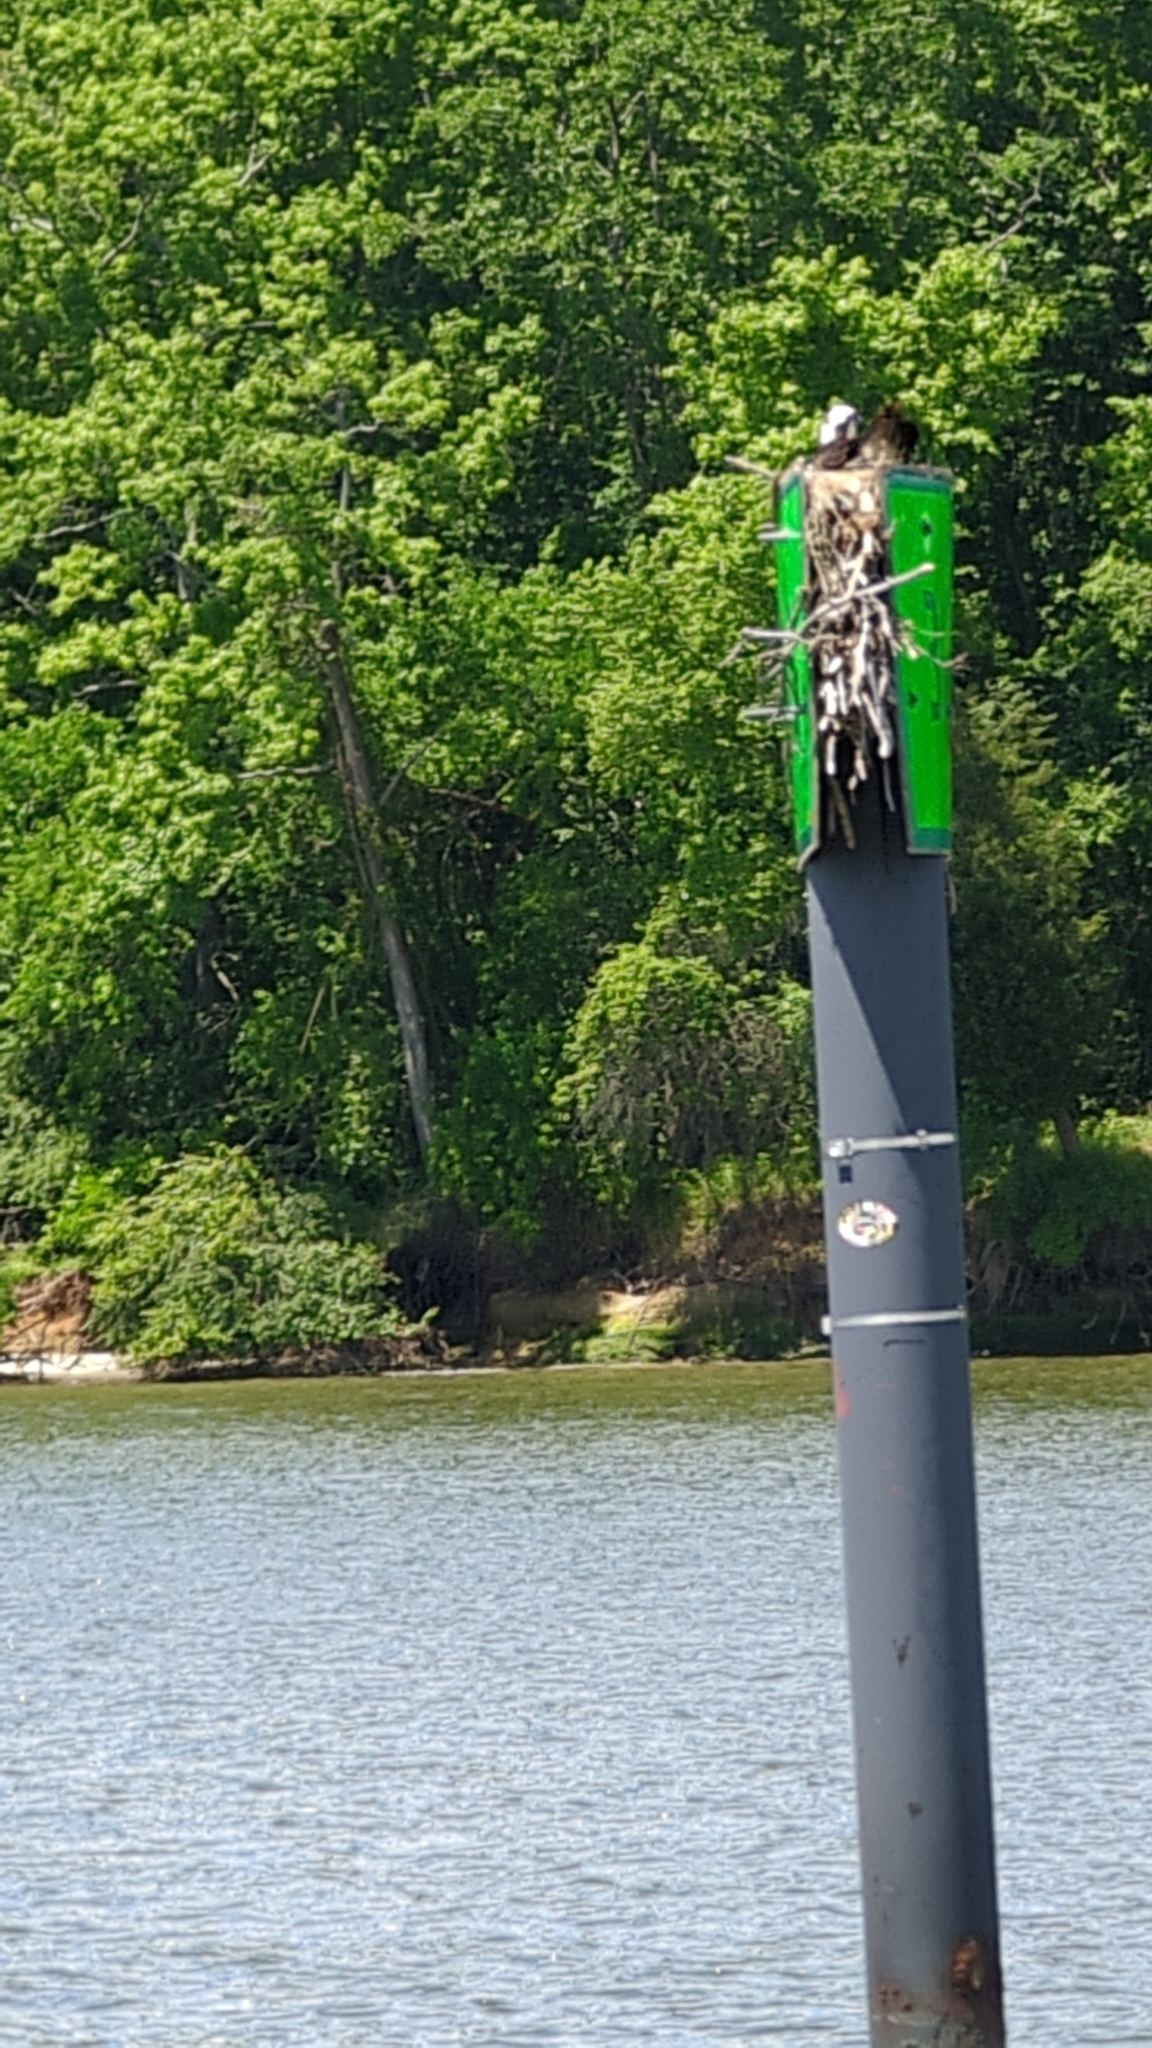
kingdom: Animalia
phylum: Chordata
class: Aves
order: Accipitriformes
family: Pandionidae
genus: Pandion
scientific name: Pandion haliaetus
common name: Osprey
